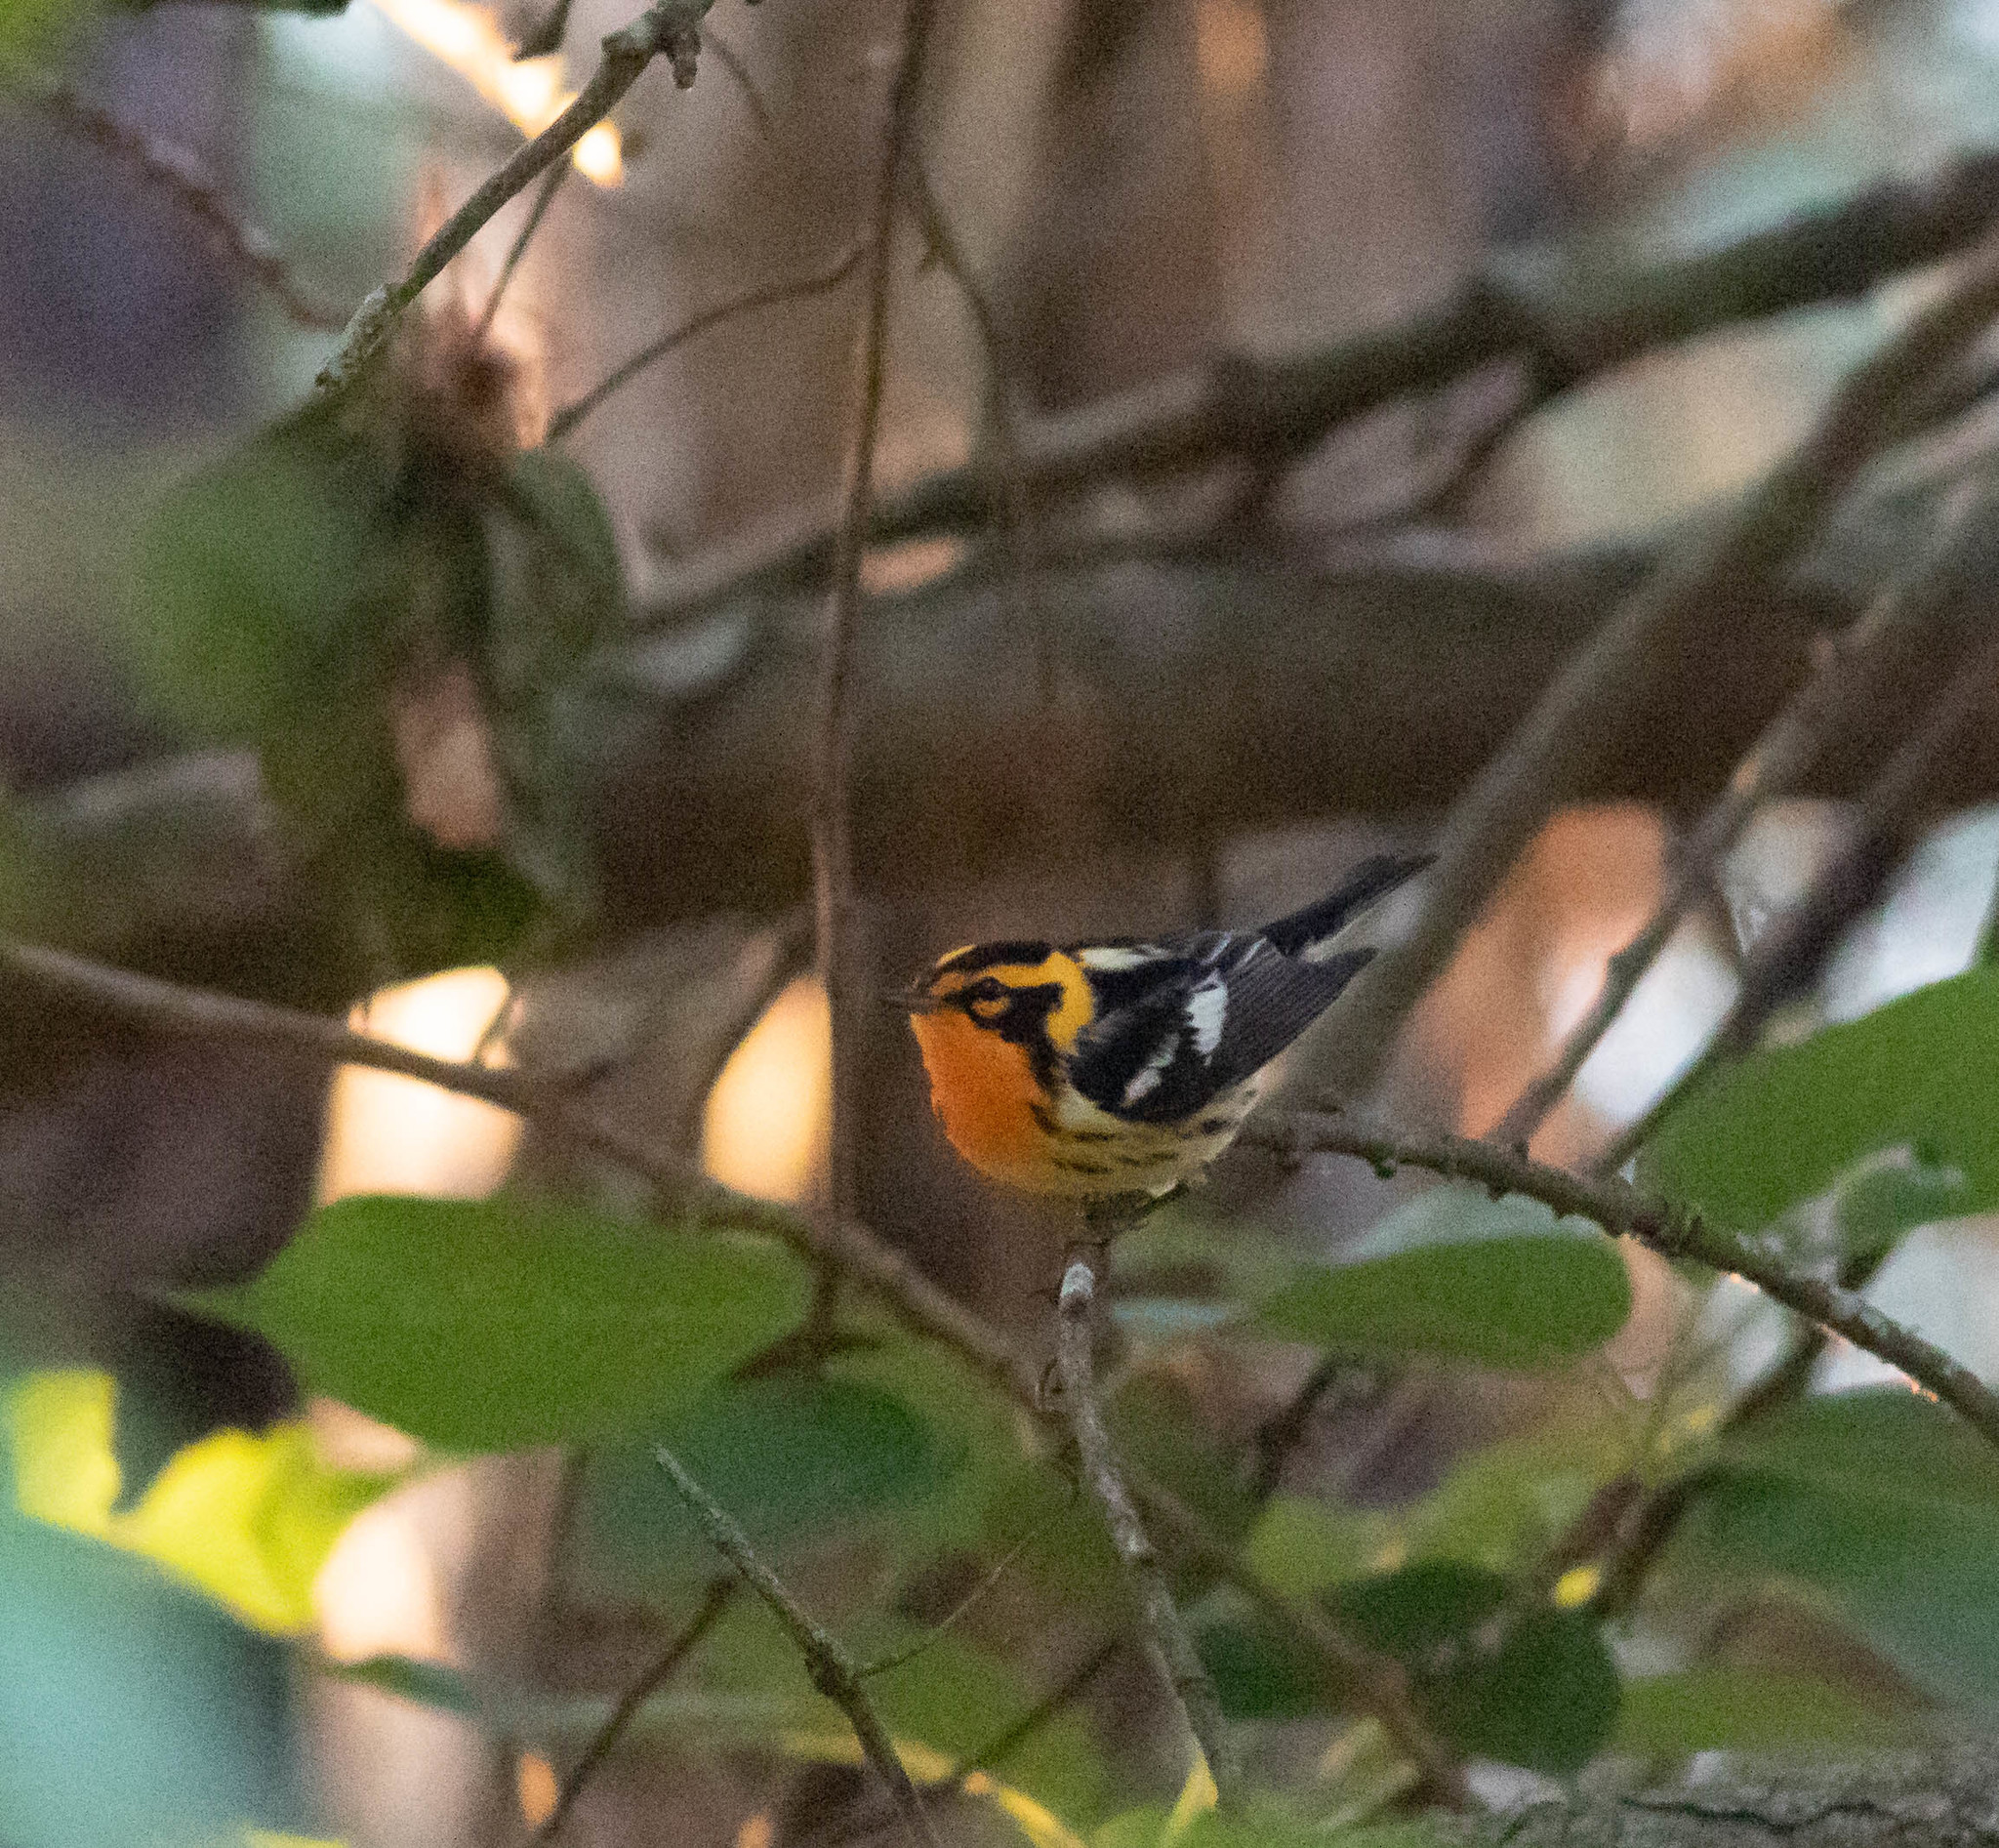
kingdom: Animalia
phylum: Chordata
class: Aves
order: Passeriformes
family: Parulidae
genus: Setophaga
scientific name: Setophaga fusca
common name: Blackburnian warbler
